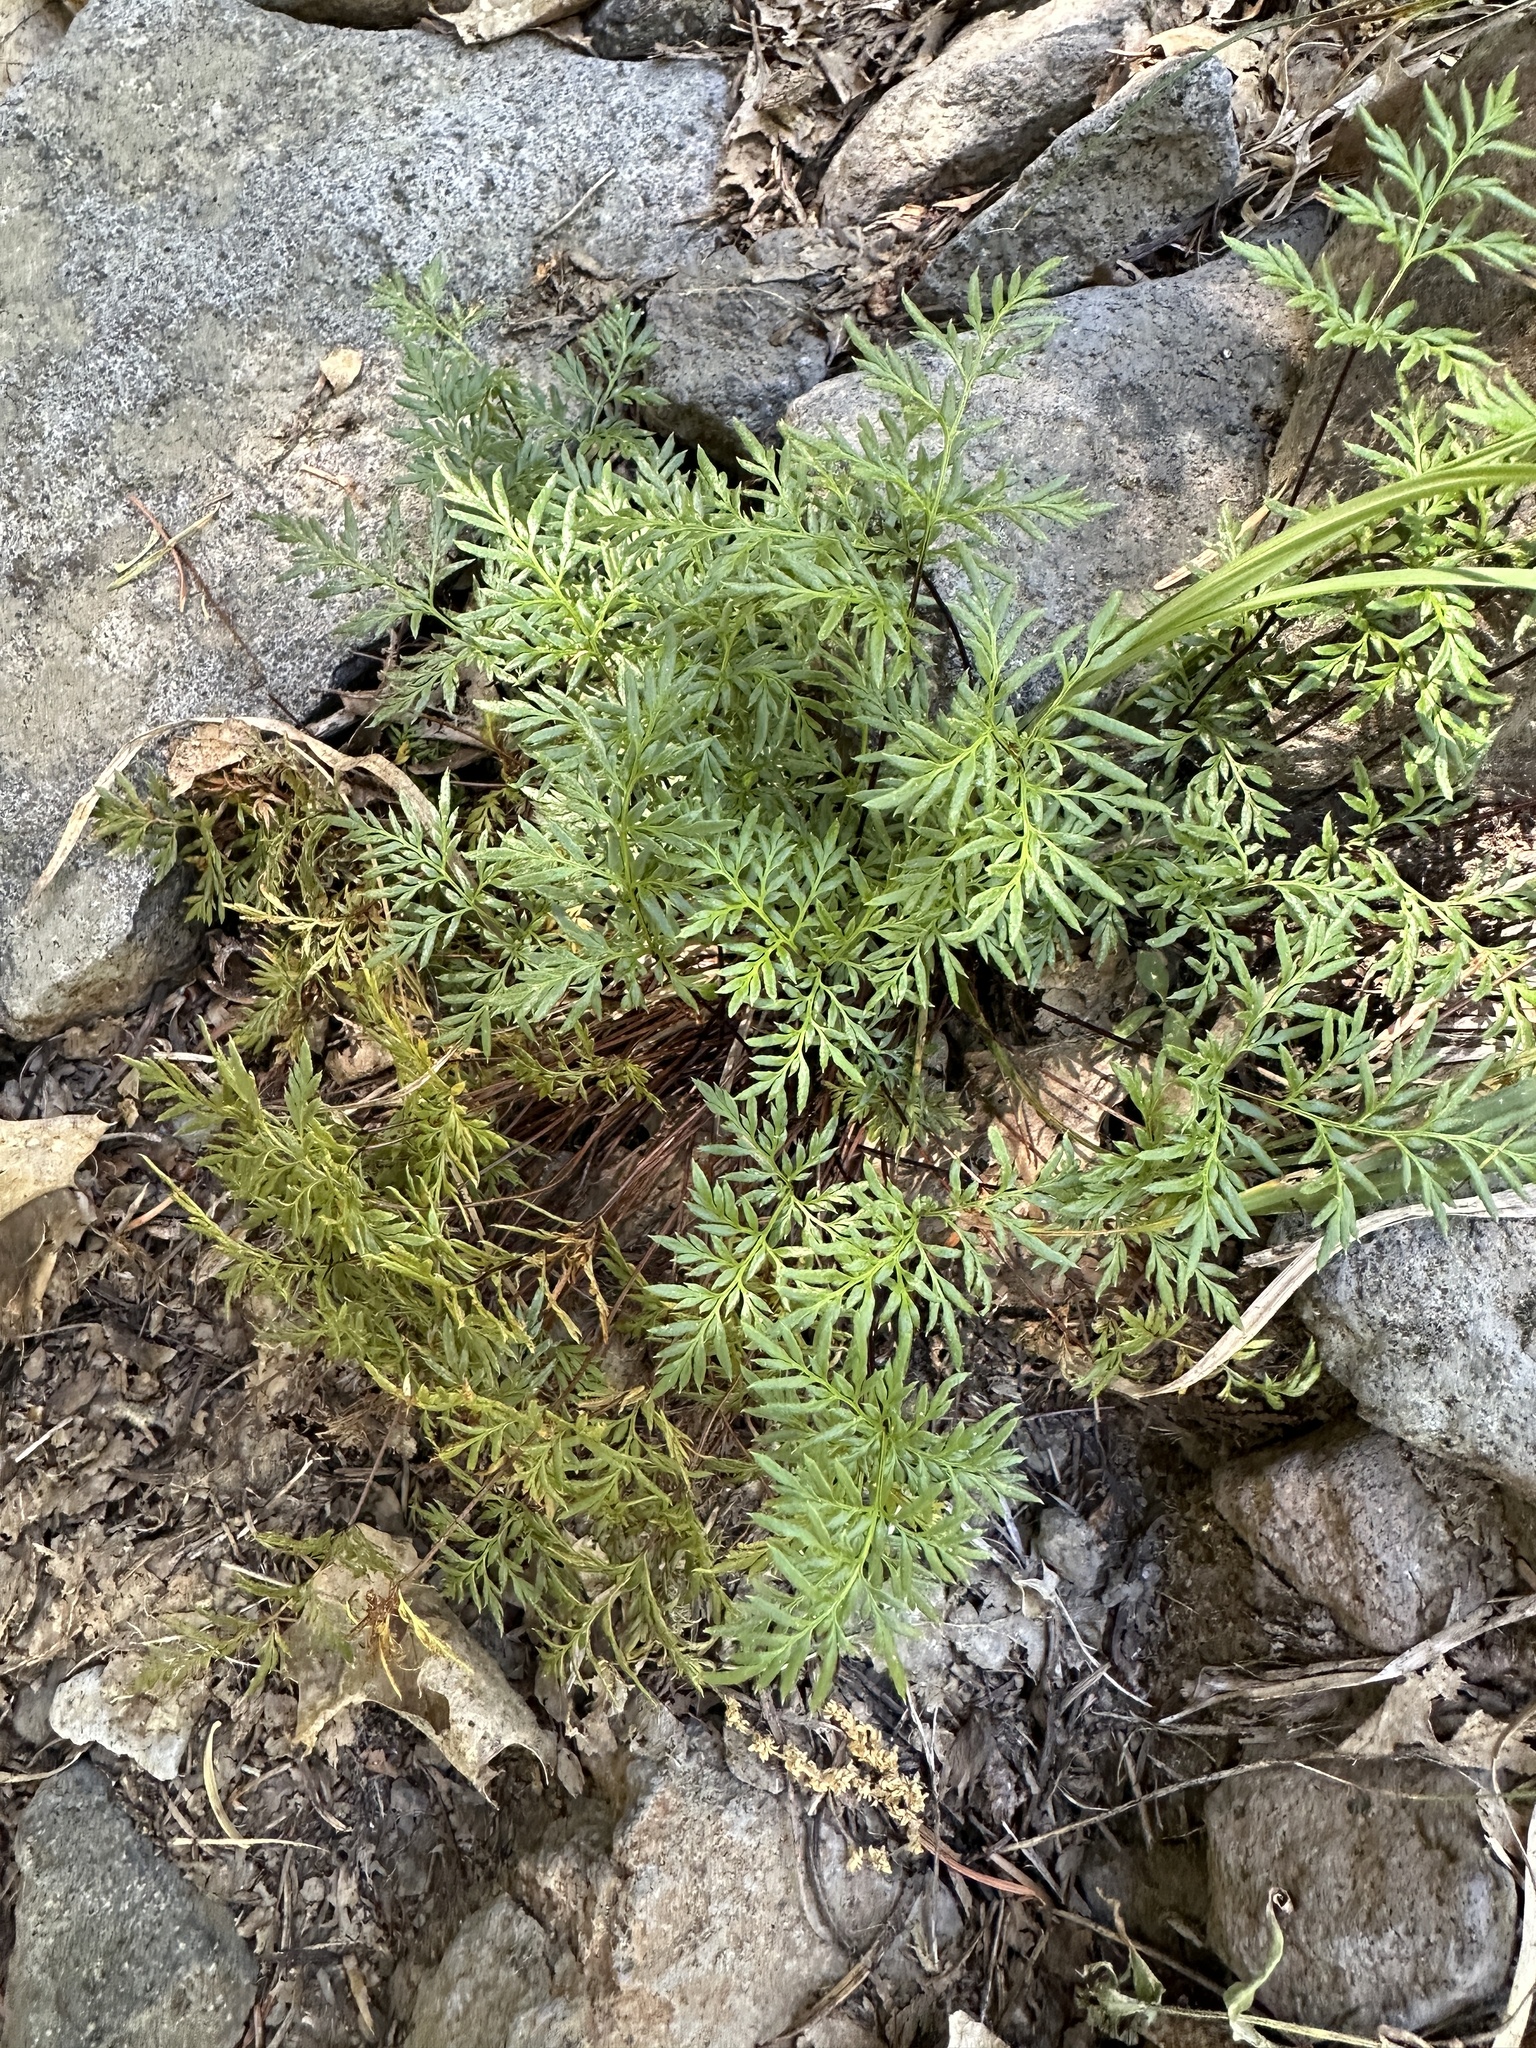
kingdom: Plantae
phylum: Tracheophyta
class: Polypodiopsida
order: Polypodiales
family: Pteridaceae
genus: Aspidotis
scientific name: Aspidotis densa
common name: Indian's dream
